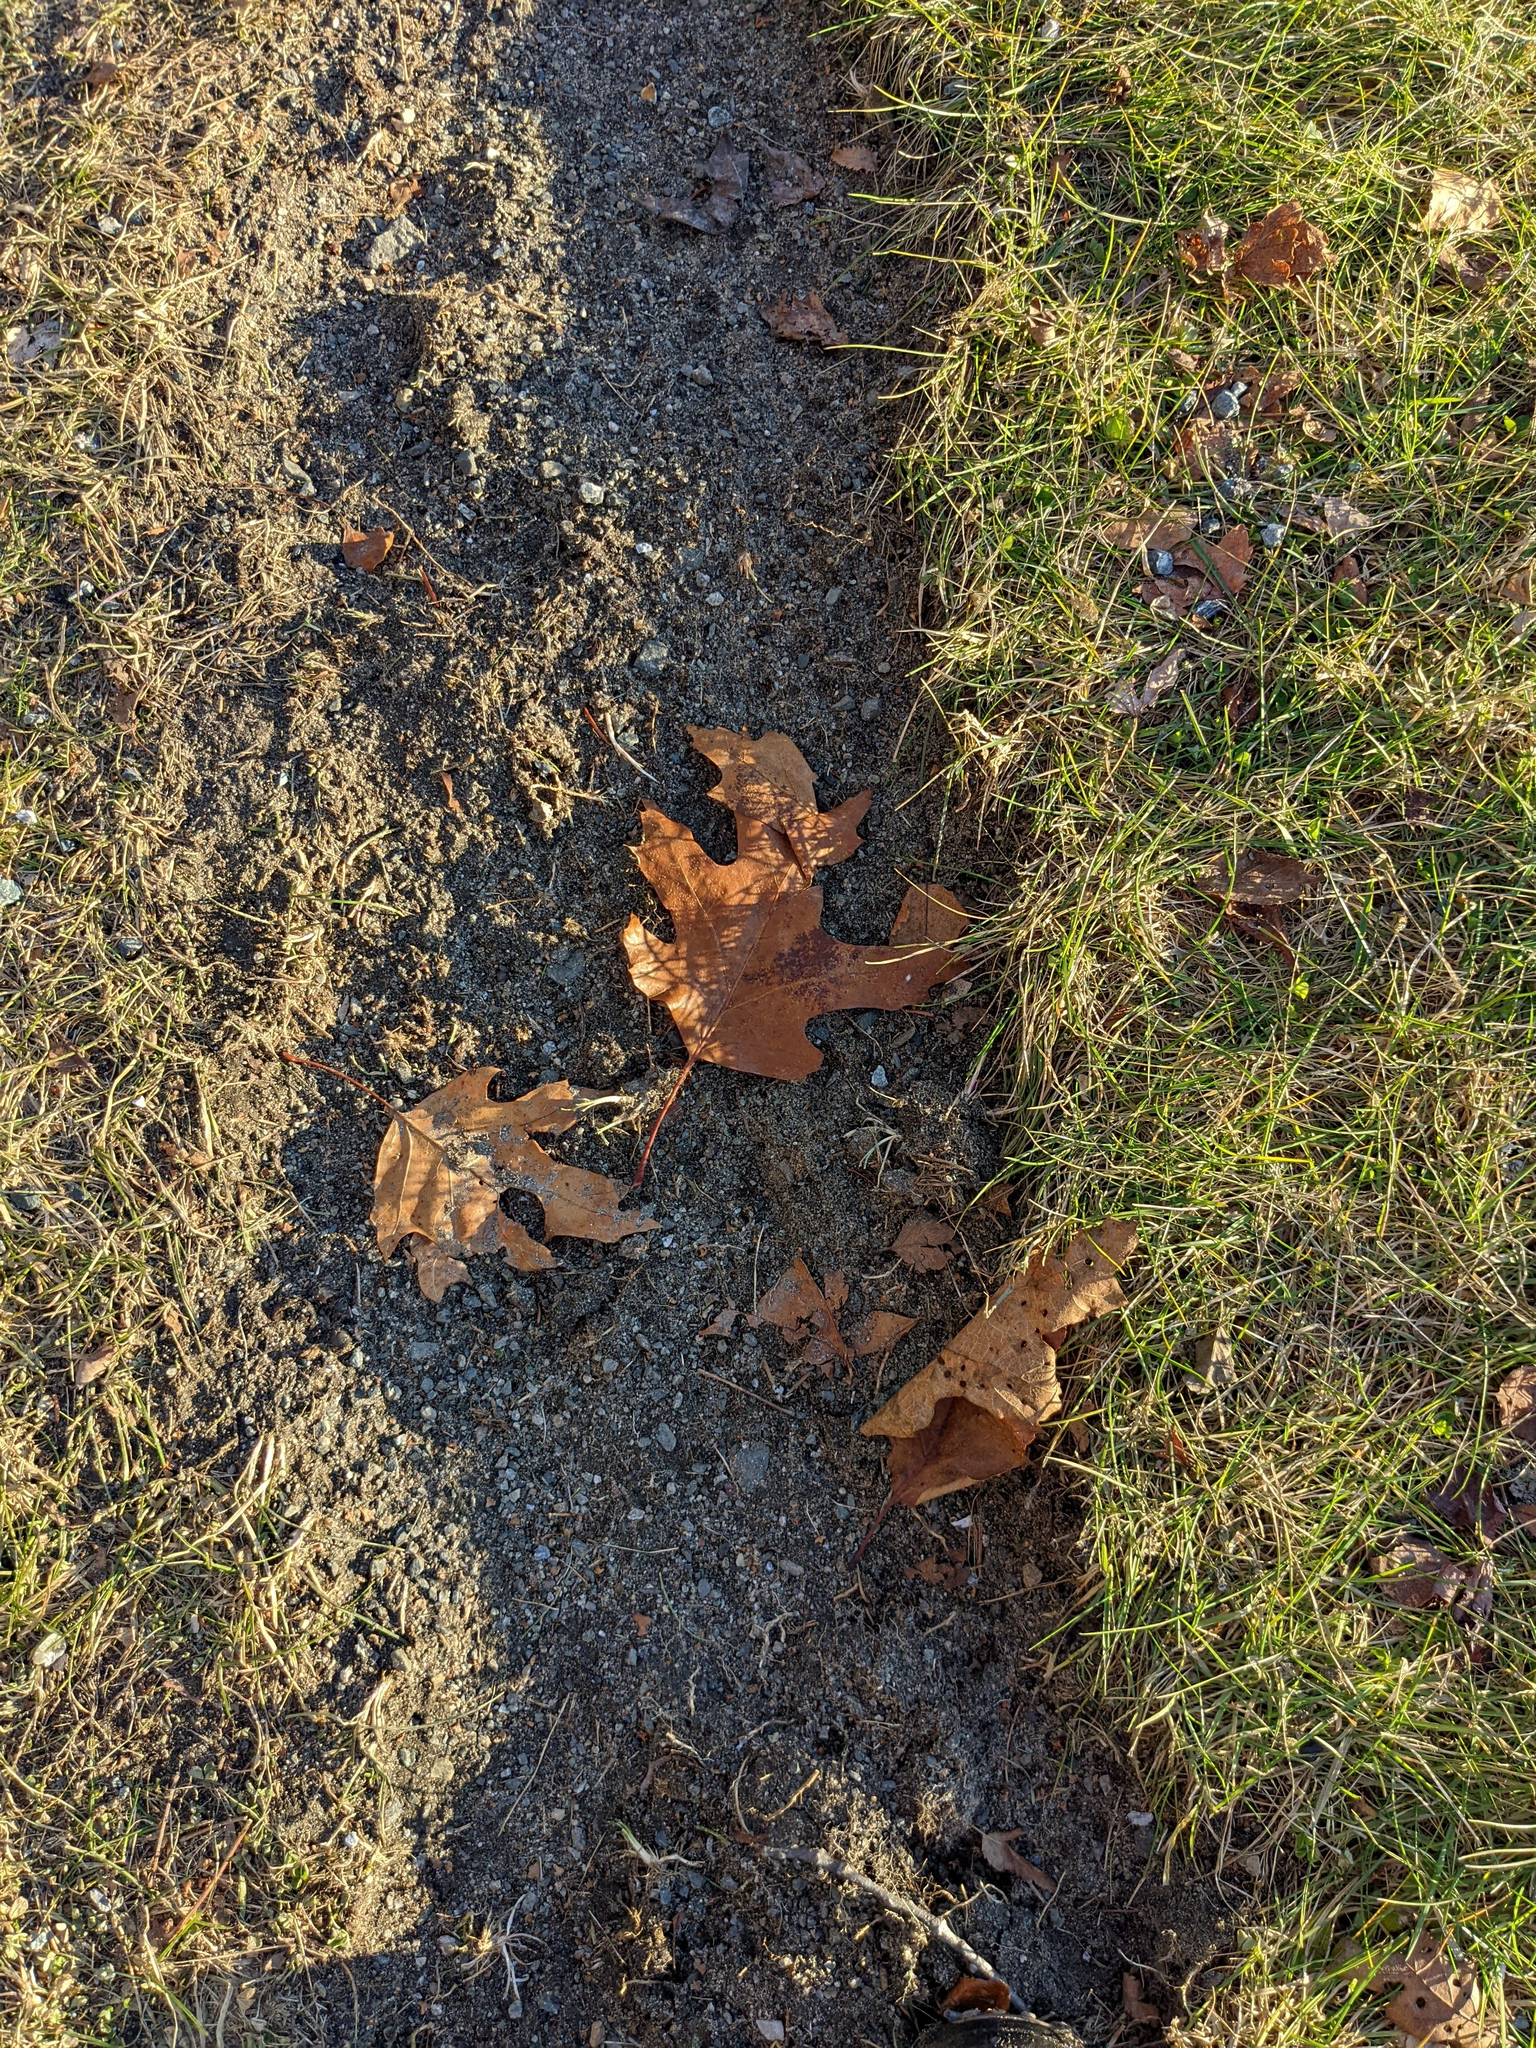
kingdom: Plantae
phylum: Tracheophyta
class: Magnoliopsida
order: Fagales
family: Fagaceae
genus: Quercus
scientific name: Quercus rubra
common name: Red oak
